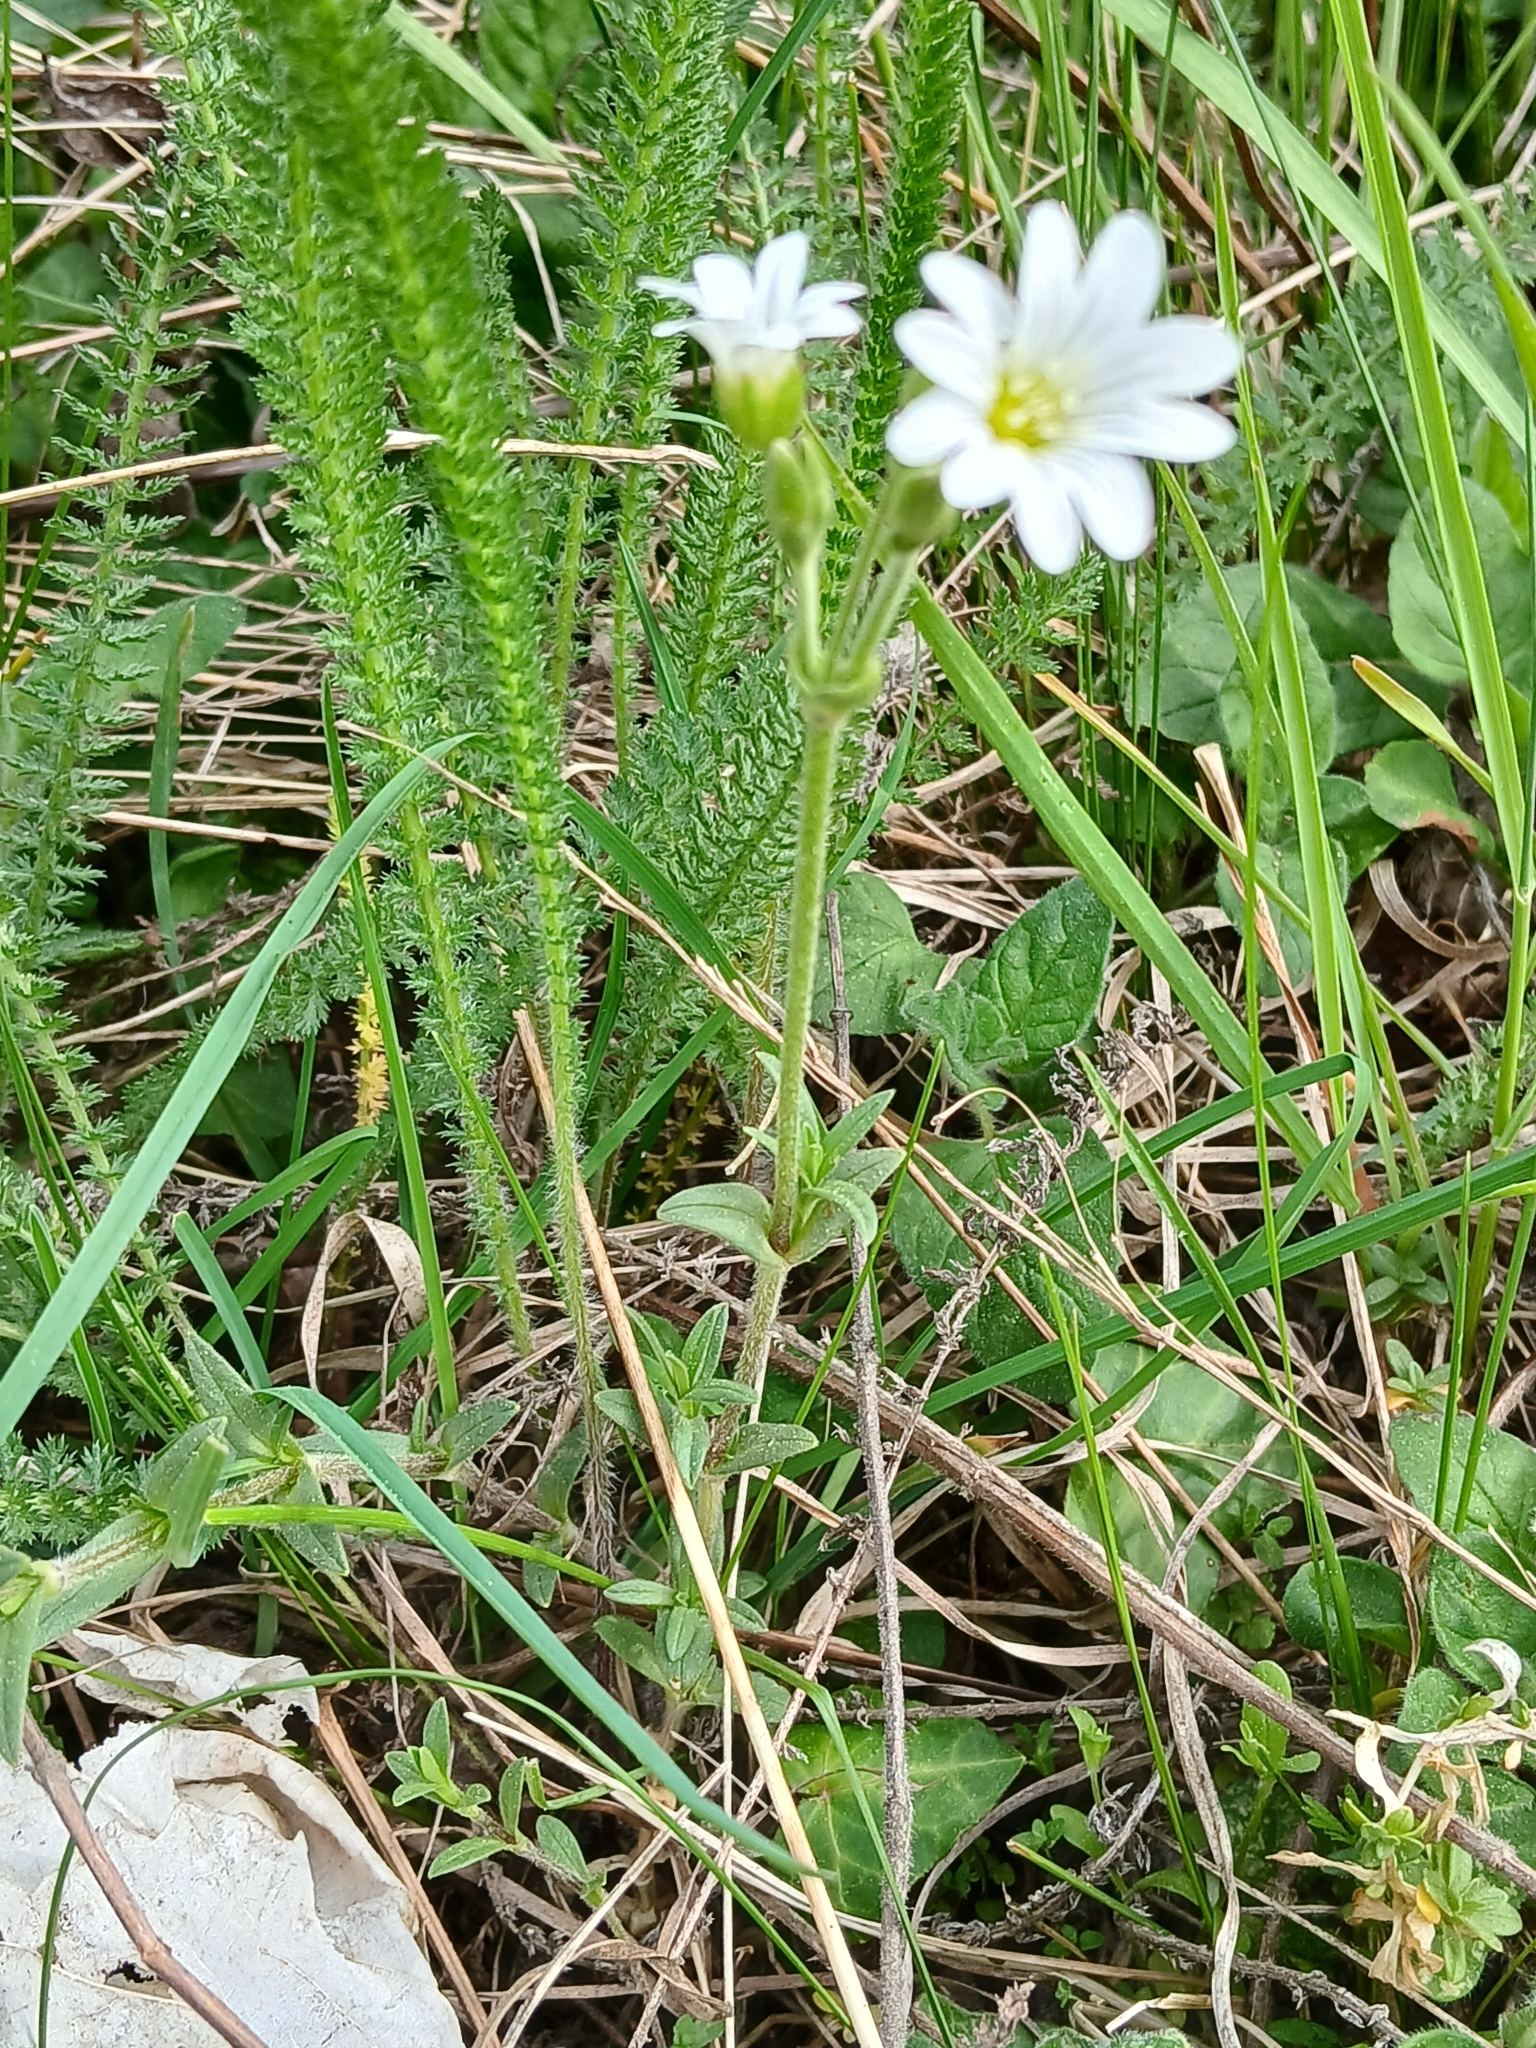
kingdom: Plantae
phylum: Tracheophyta
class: Magnoliopsida
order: Caryophyllales
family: Caryophyllaceae
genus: Cerastium
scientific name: Cerastium arvense
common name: Field mouse-ear
